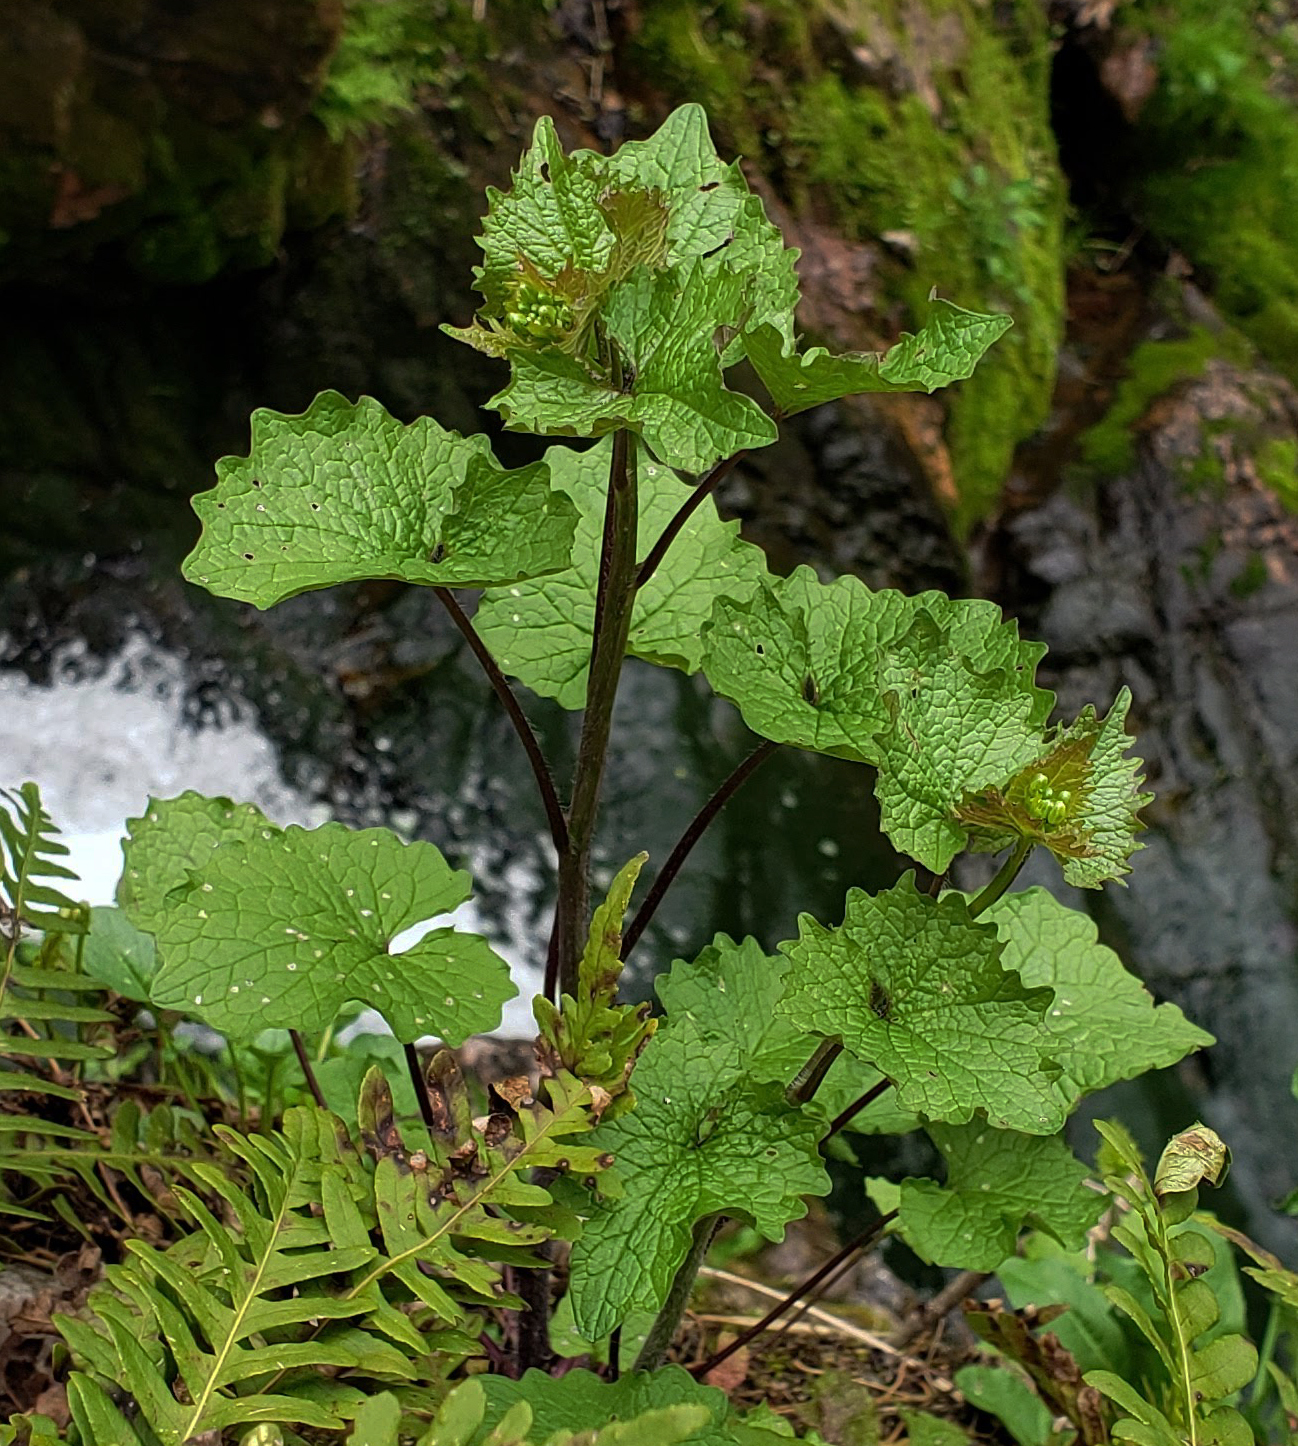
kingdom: Plantae
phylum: Tracheophyta
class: Magnoliopsida
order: Brassicales
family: Brassicaceae
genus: Alliaria
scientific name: Alliaria petiolata
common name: Garlic mustard
